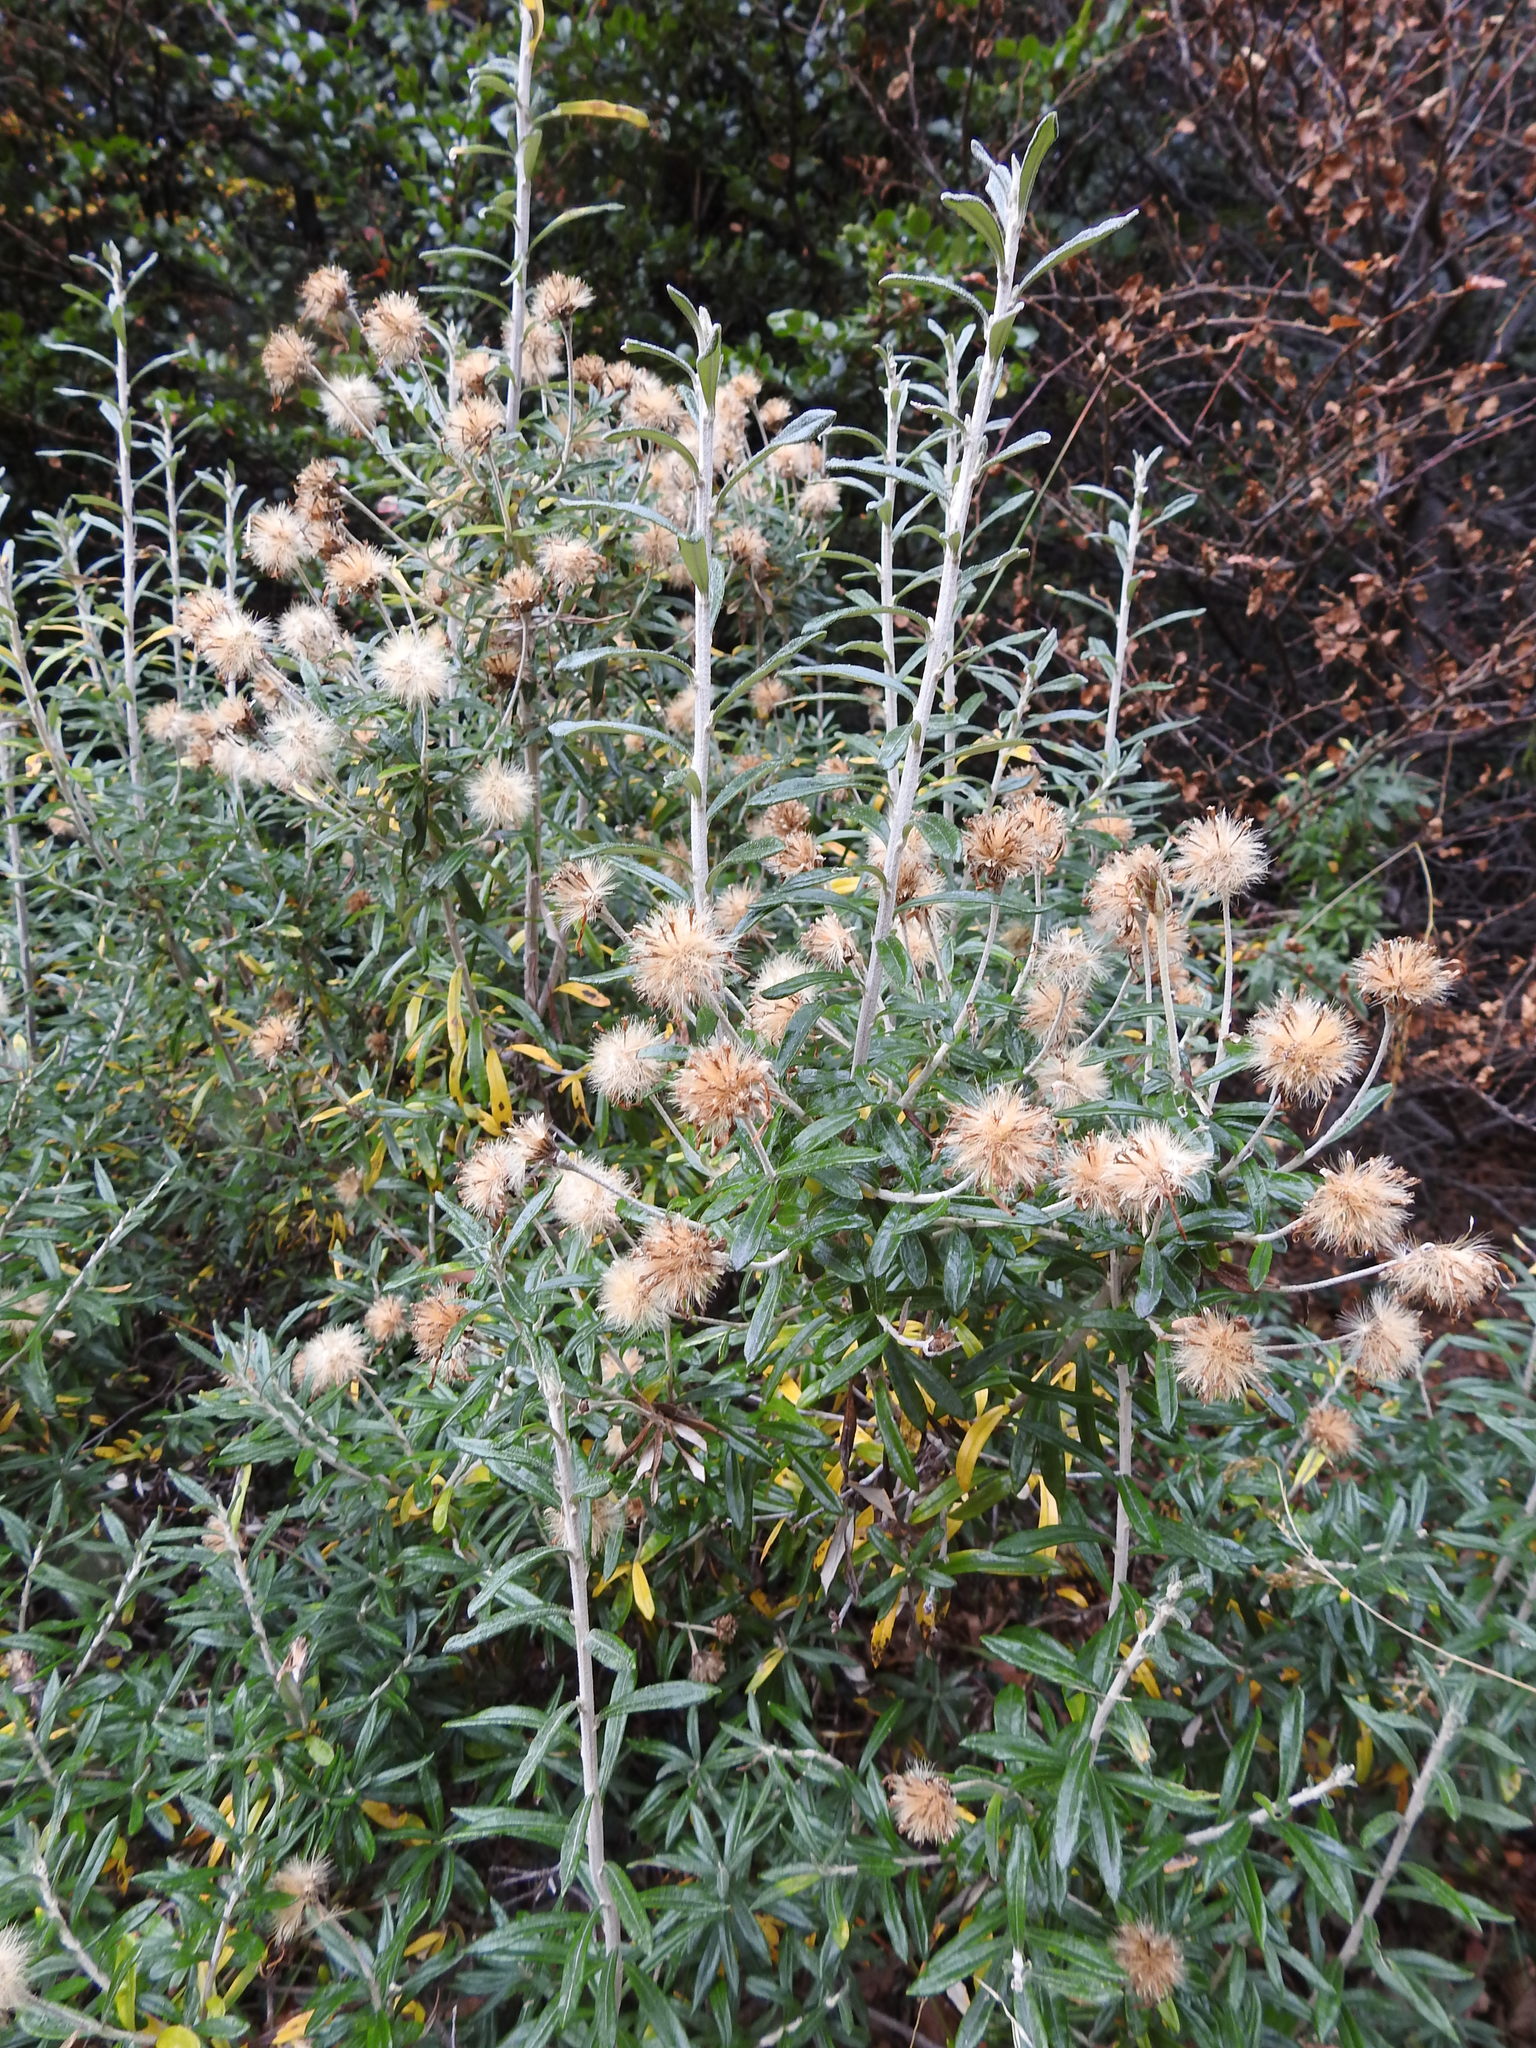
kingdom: Plantae
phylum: Tracheophyta
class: Magnoliopsida
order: Asterales
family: Asteraceae
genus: Chiliotrichum
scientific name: Chiliotrichum diffusum
